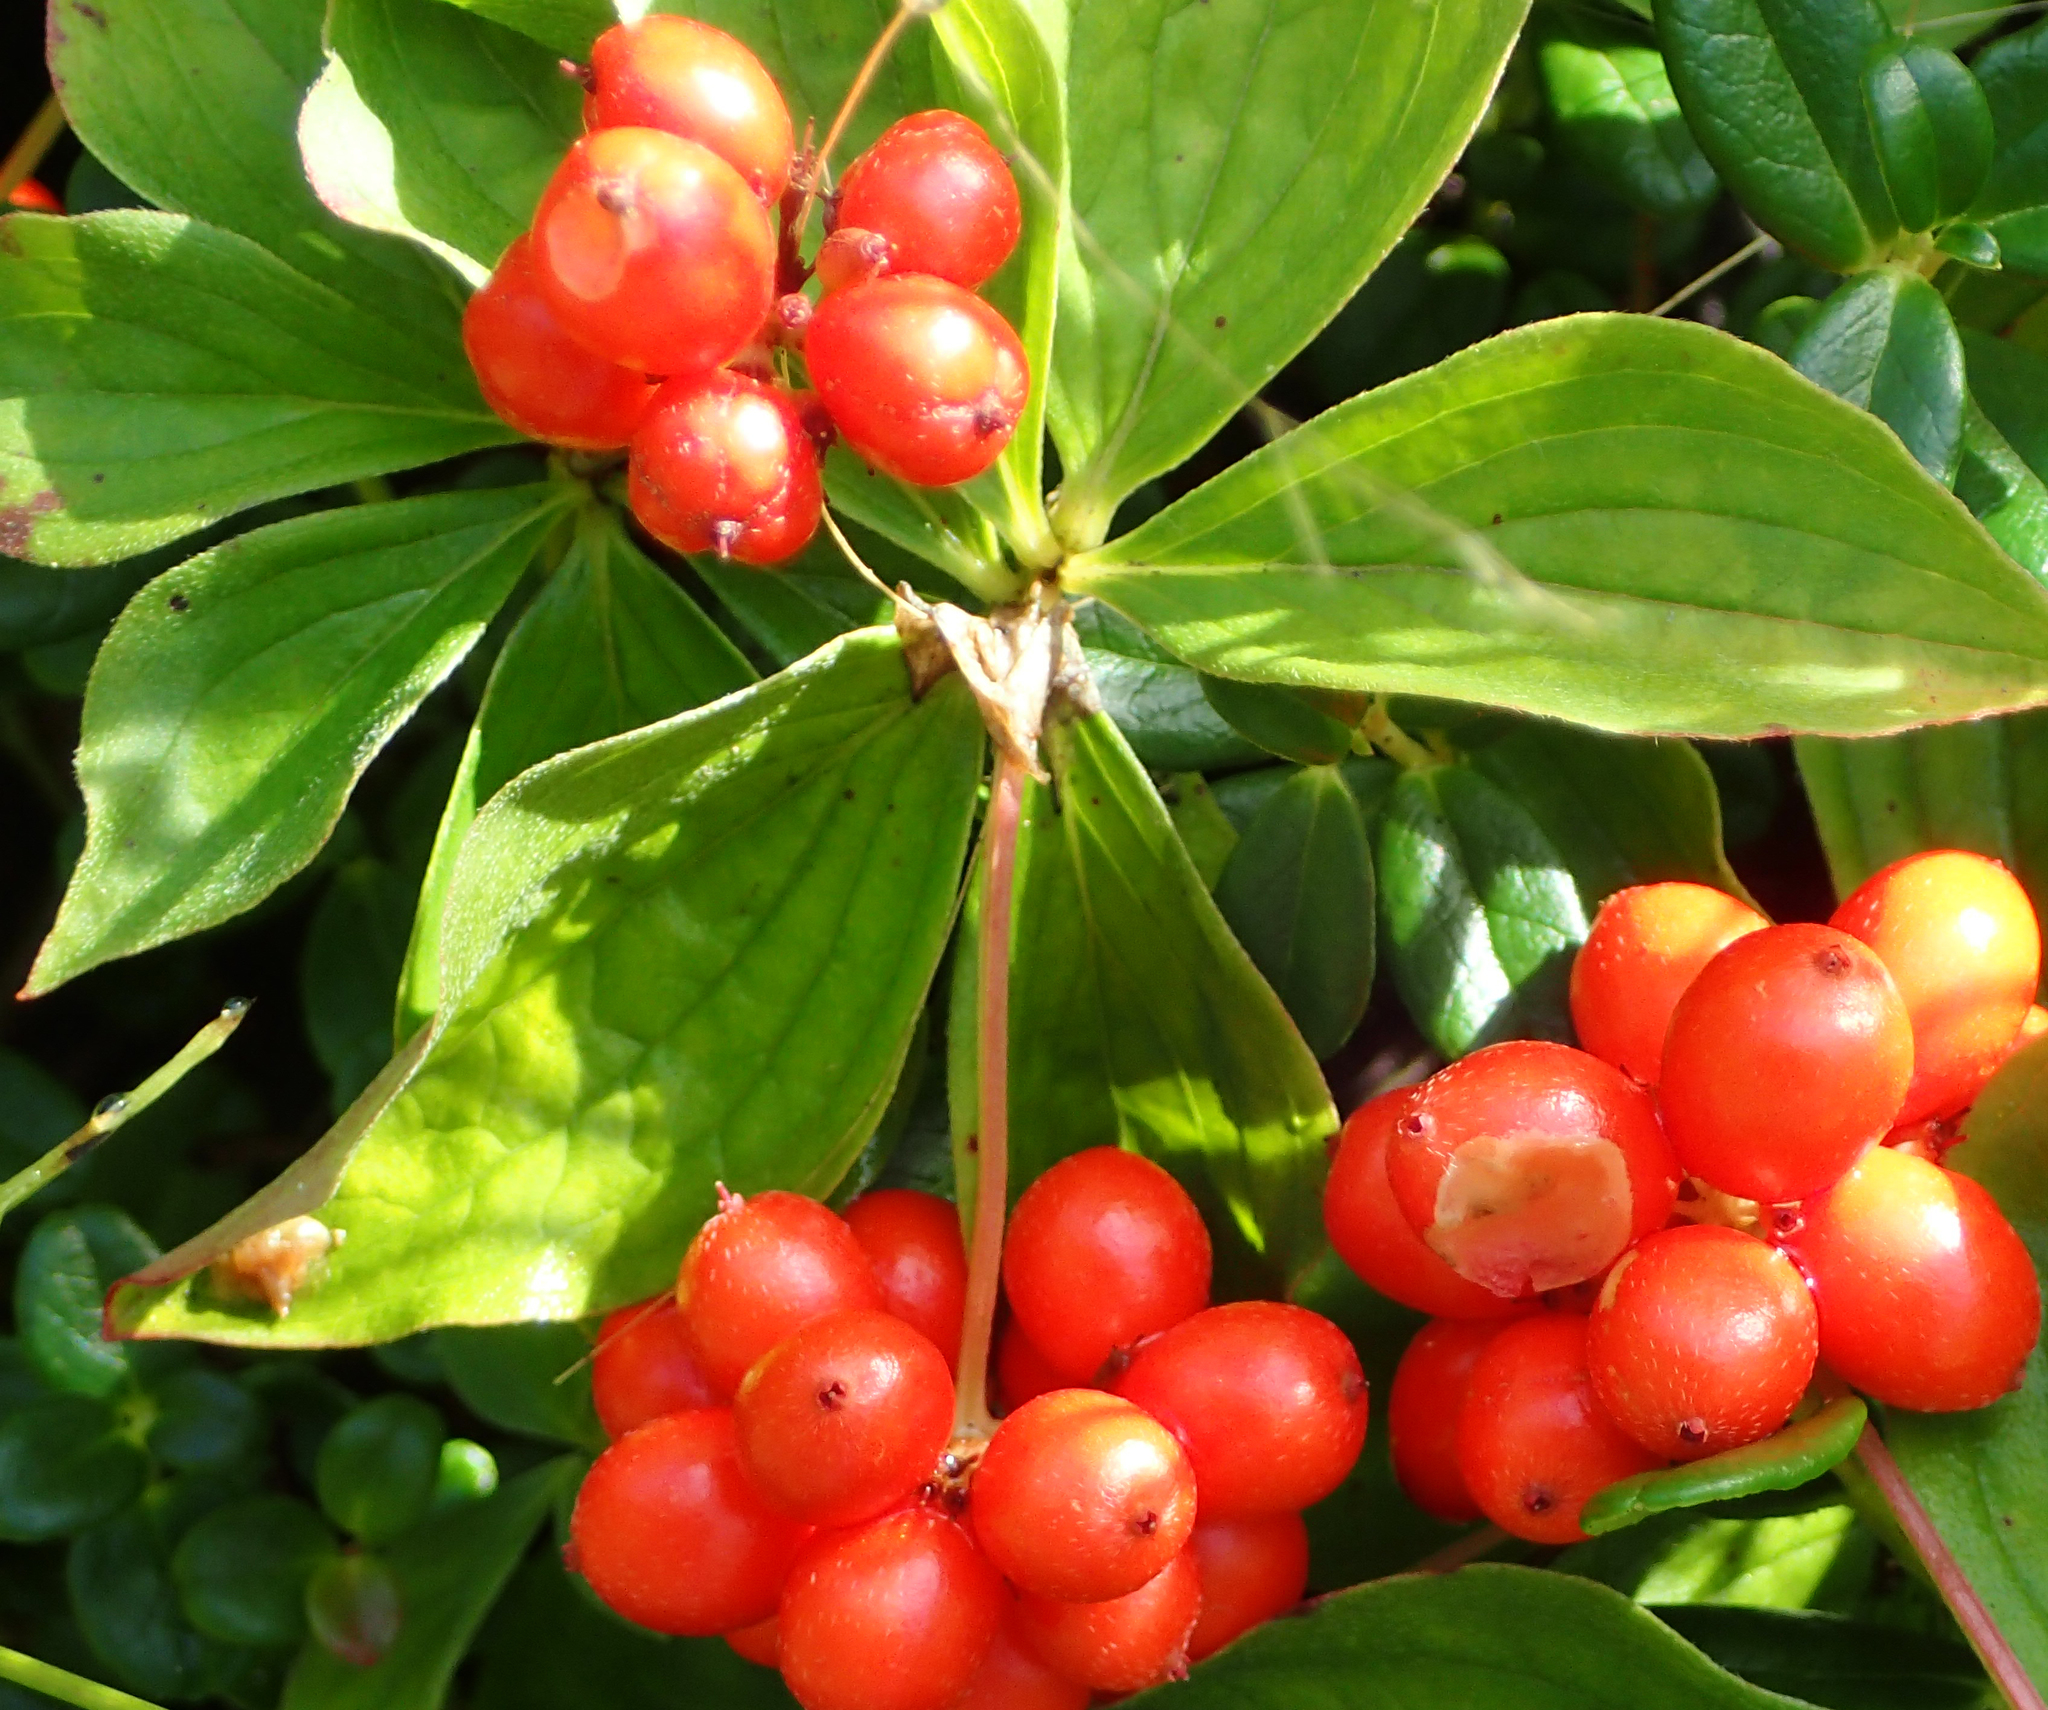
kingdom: Plantae
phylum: Tracheophyta
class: Magnoliopsida
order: Cornales
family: Cornaceae
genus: Cornus
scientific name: Cornus canadensis
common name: Creeping dogwood
